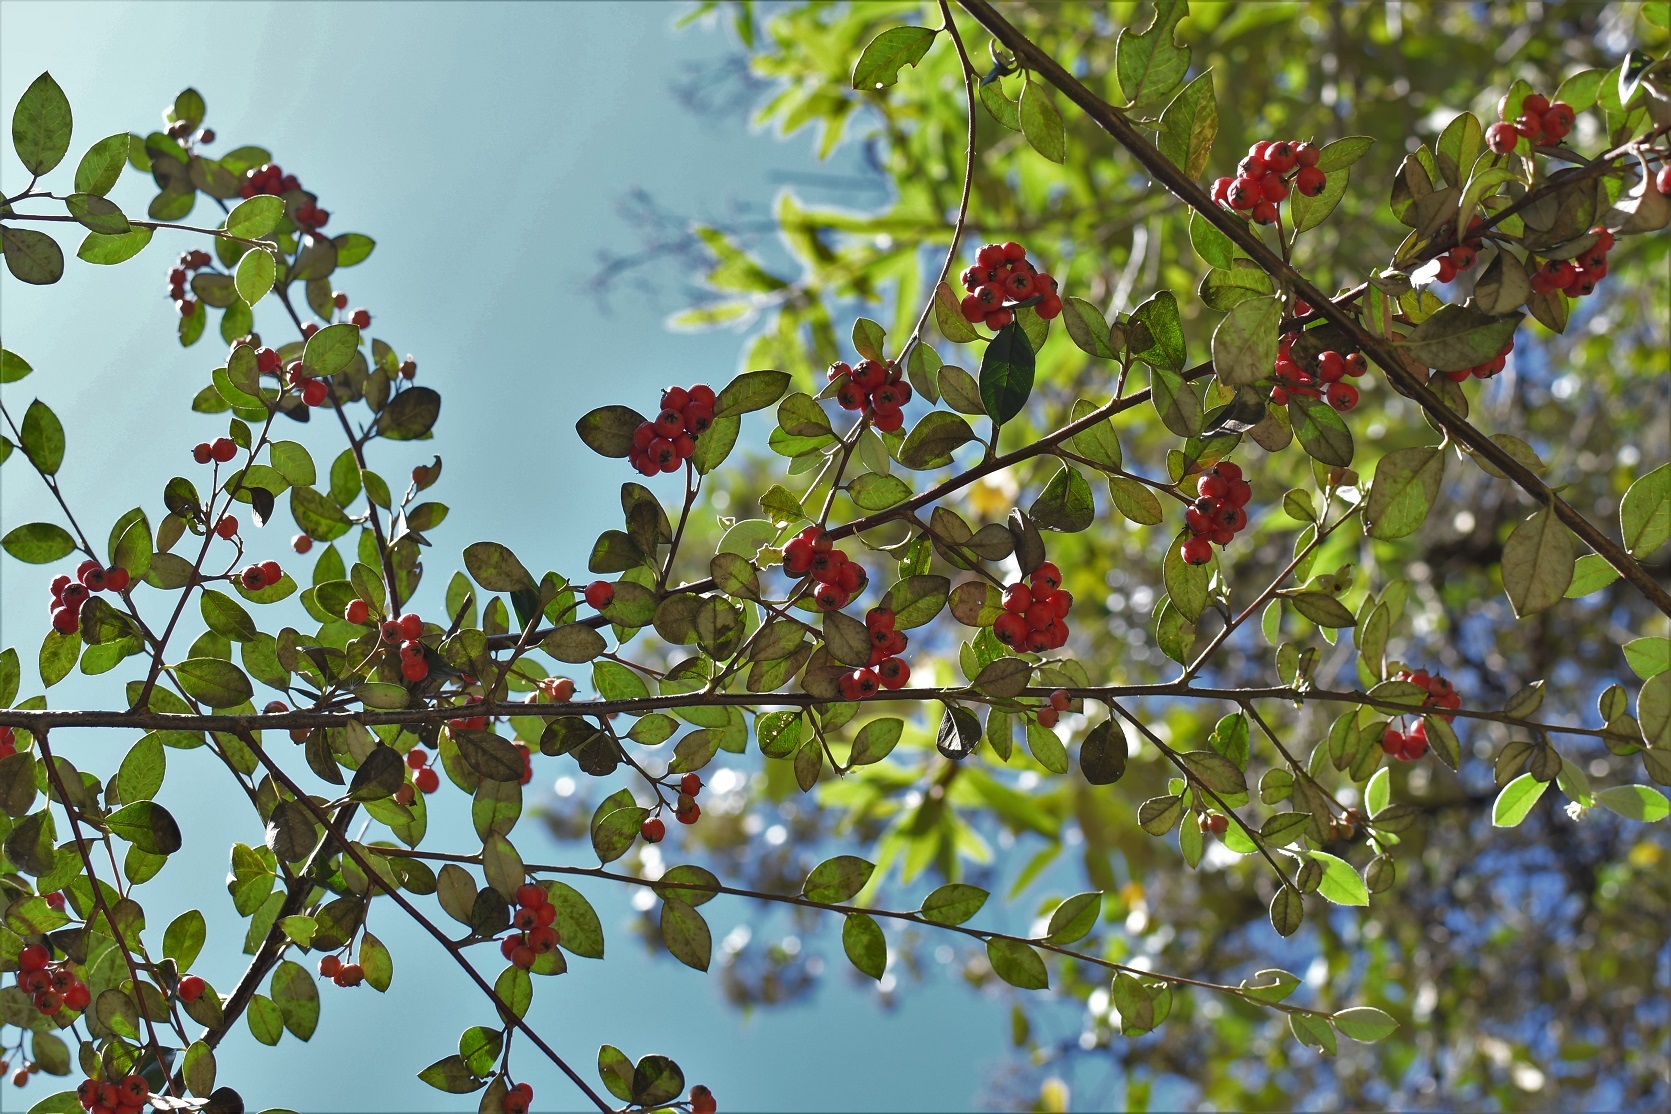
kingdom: Plantae
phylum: Tracheophyta
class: Magnoliopsida
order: Rosales
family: Rosaceae
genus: Cotoneaster
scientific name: Cotoneaster glaucophyllus
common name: Glaucous cotoneaster
